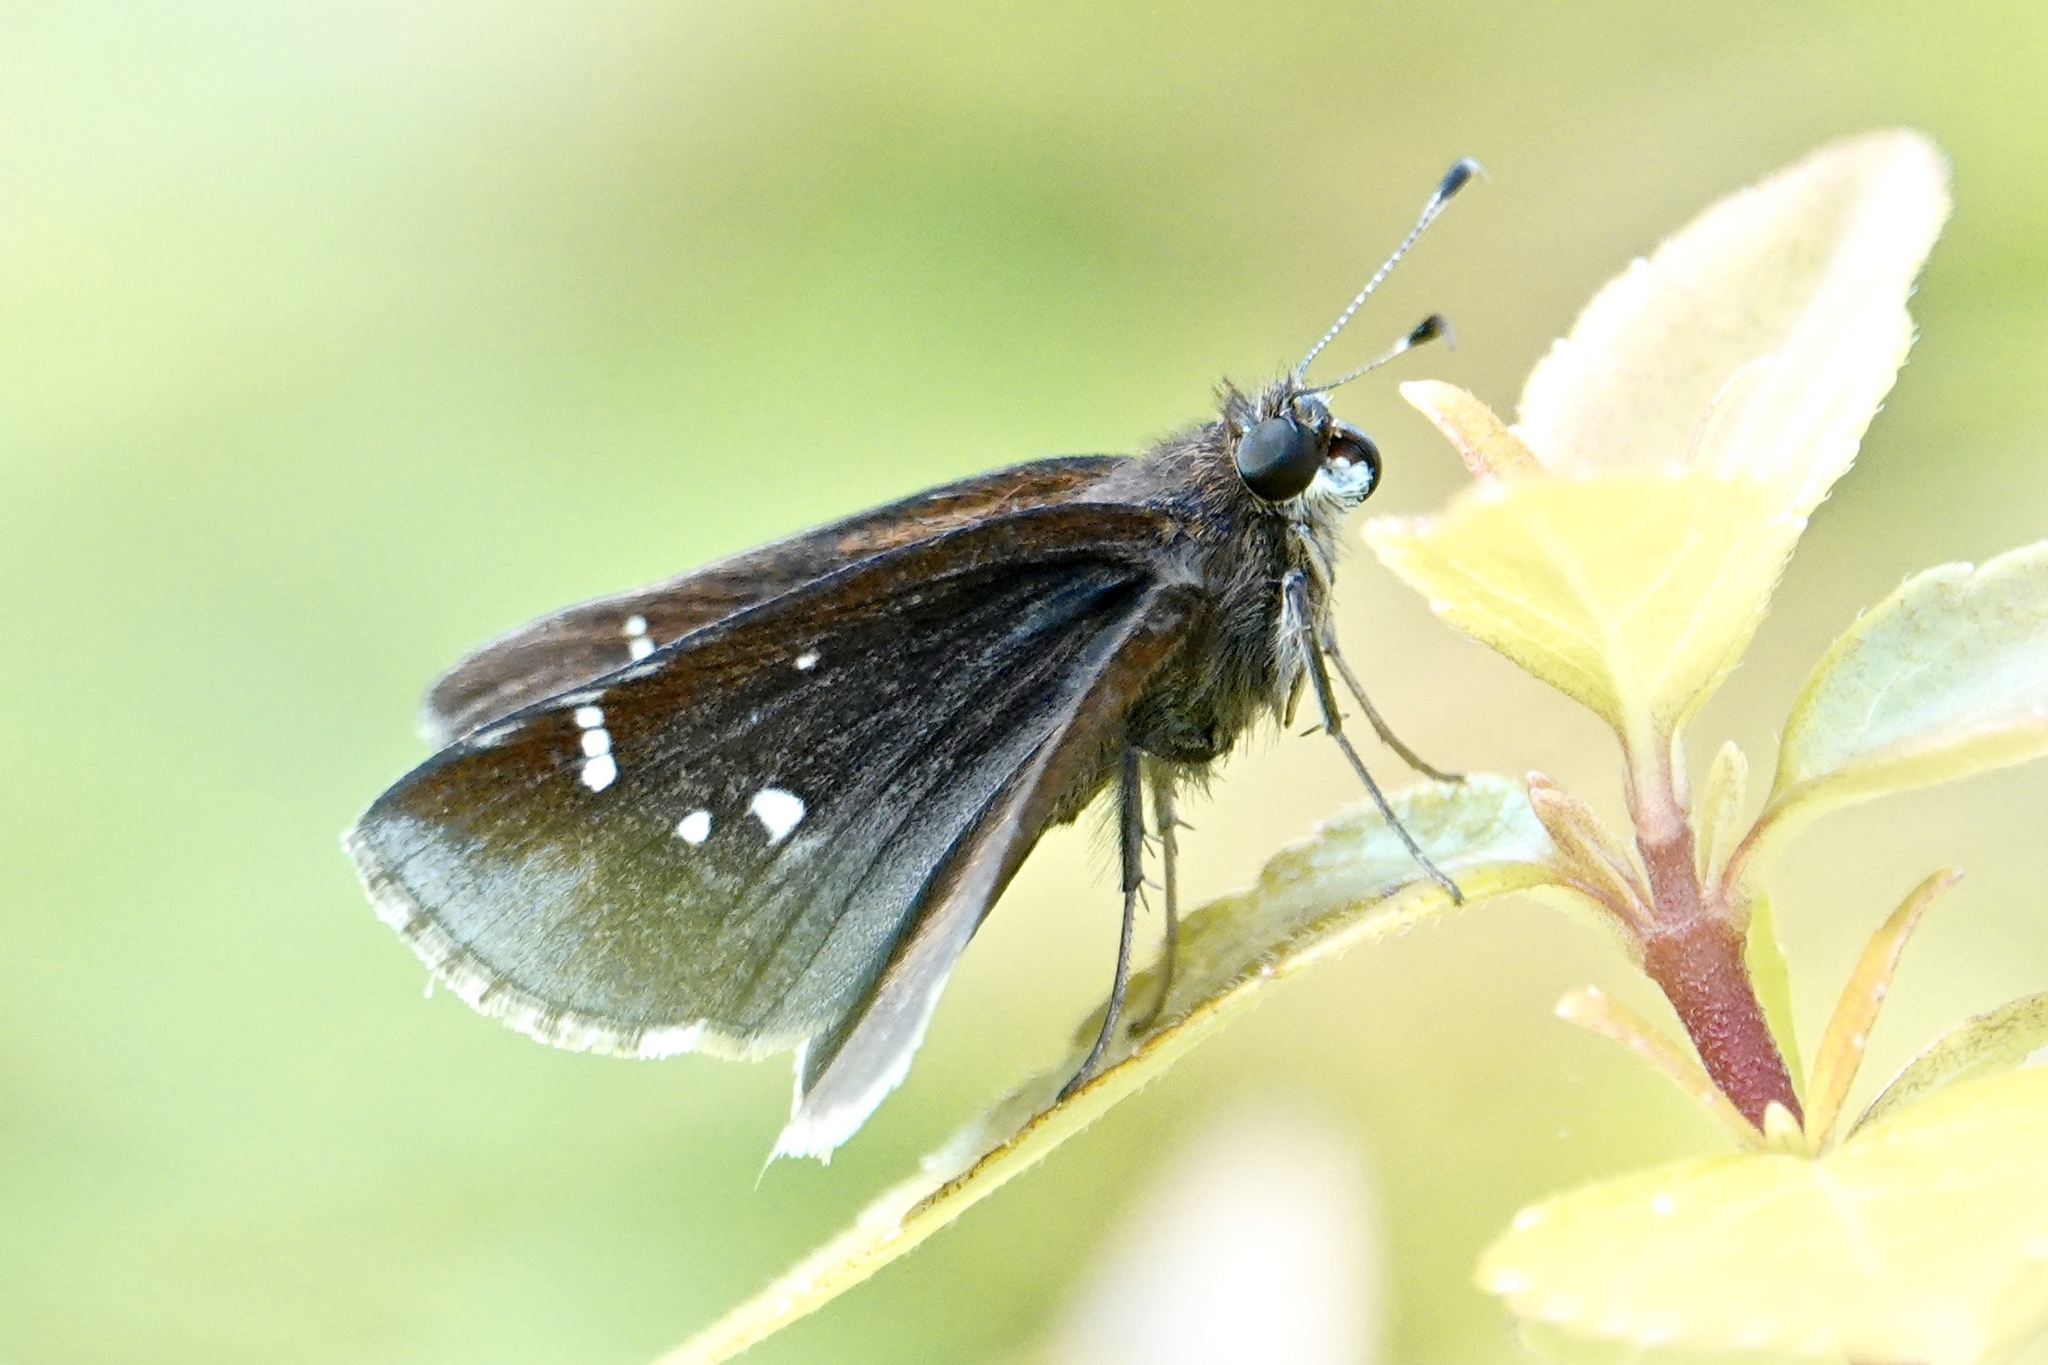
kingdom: Animalia
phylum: Arthropoda
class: Insecta
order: Lepidoptera
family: Hesperiidae
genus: Lerema
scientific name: Lerema accius
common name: Clouded skipper
